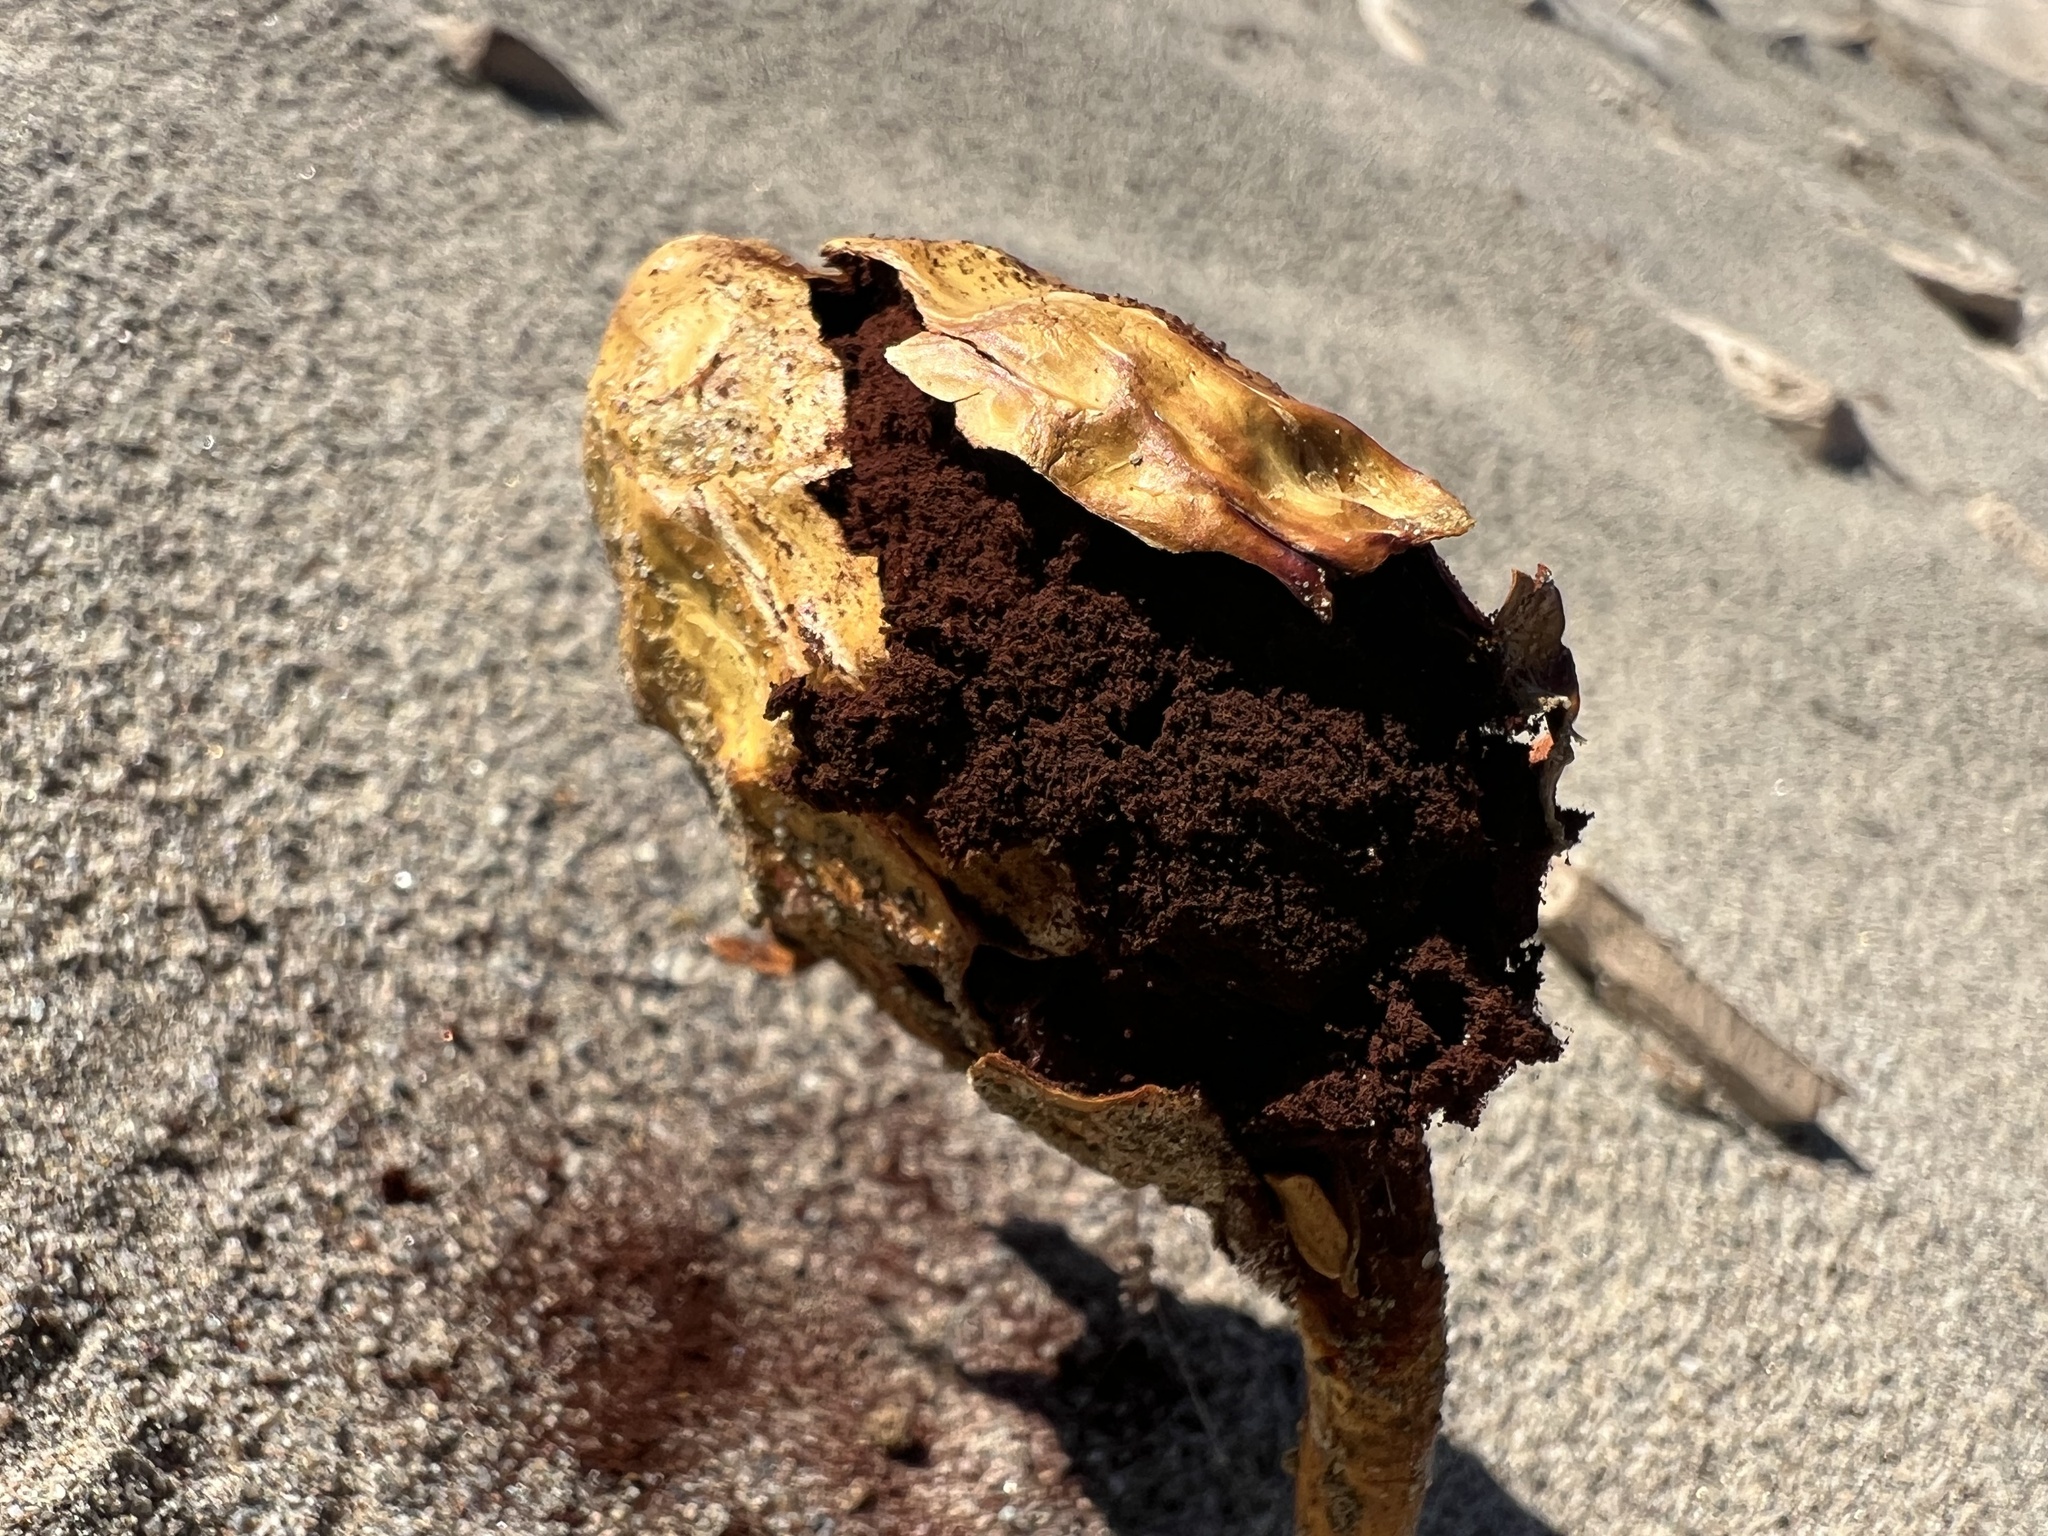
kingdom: Fungi
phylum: Basidiomycota
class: Agaricomycetes
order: Agaricales
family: Agaricaceae
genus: Podaxis
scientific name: Podaxis pistillaris
